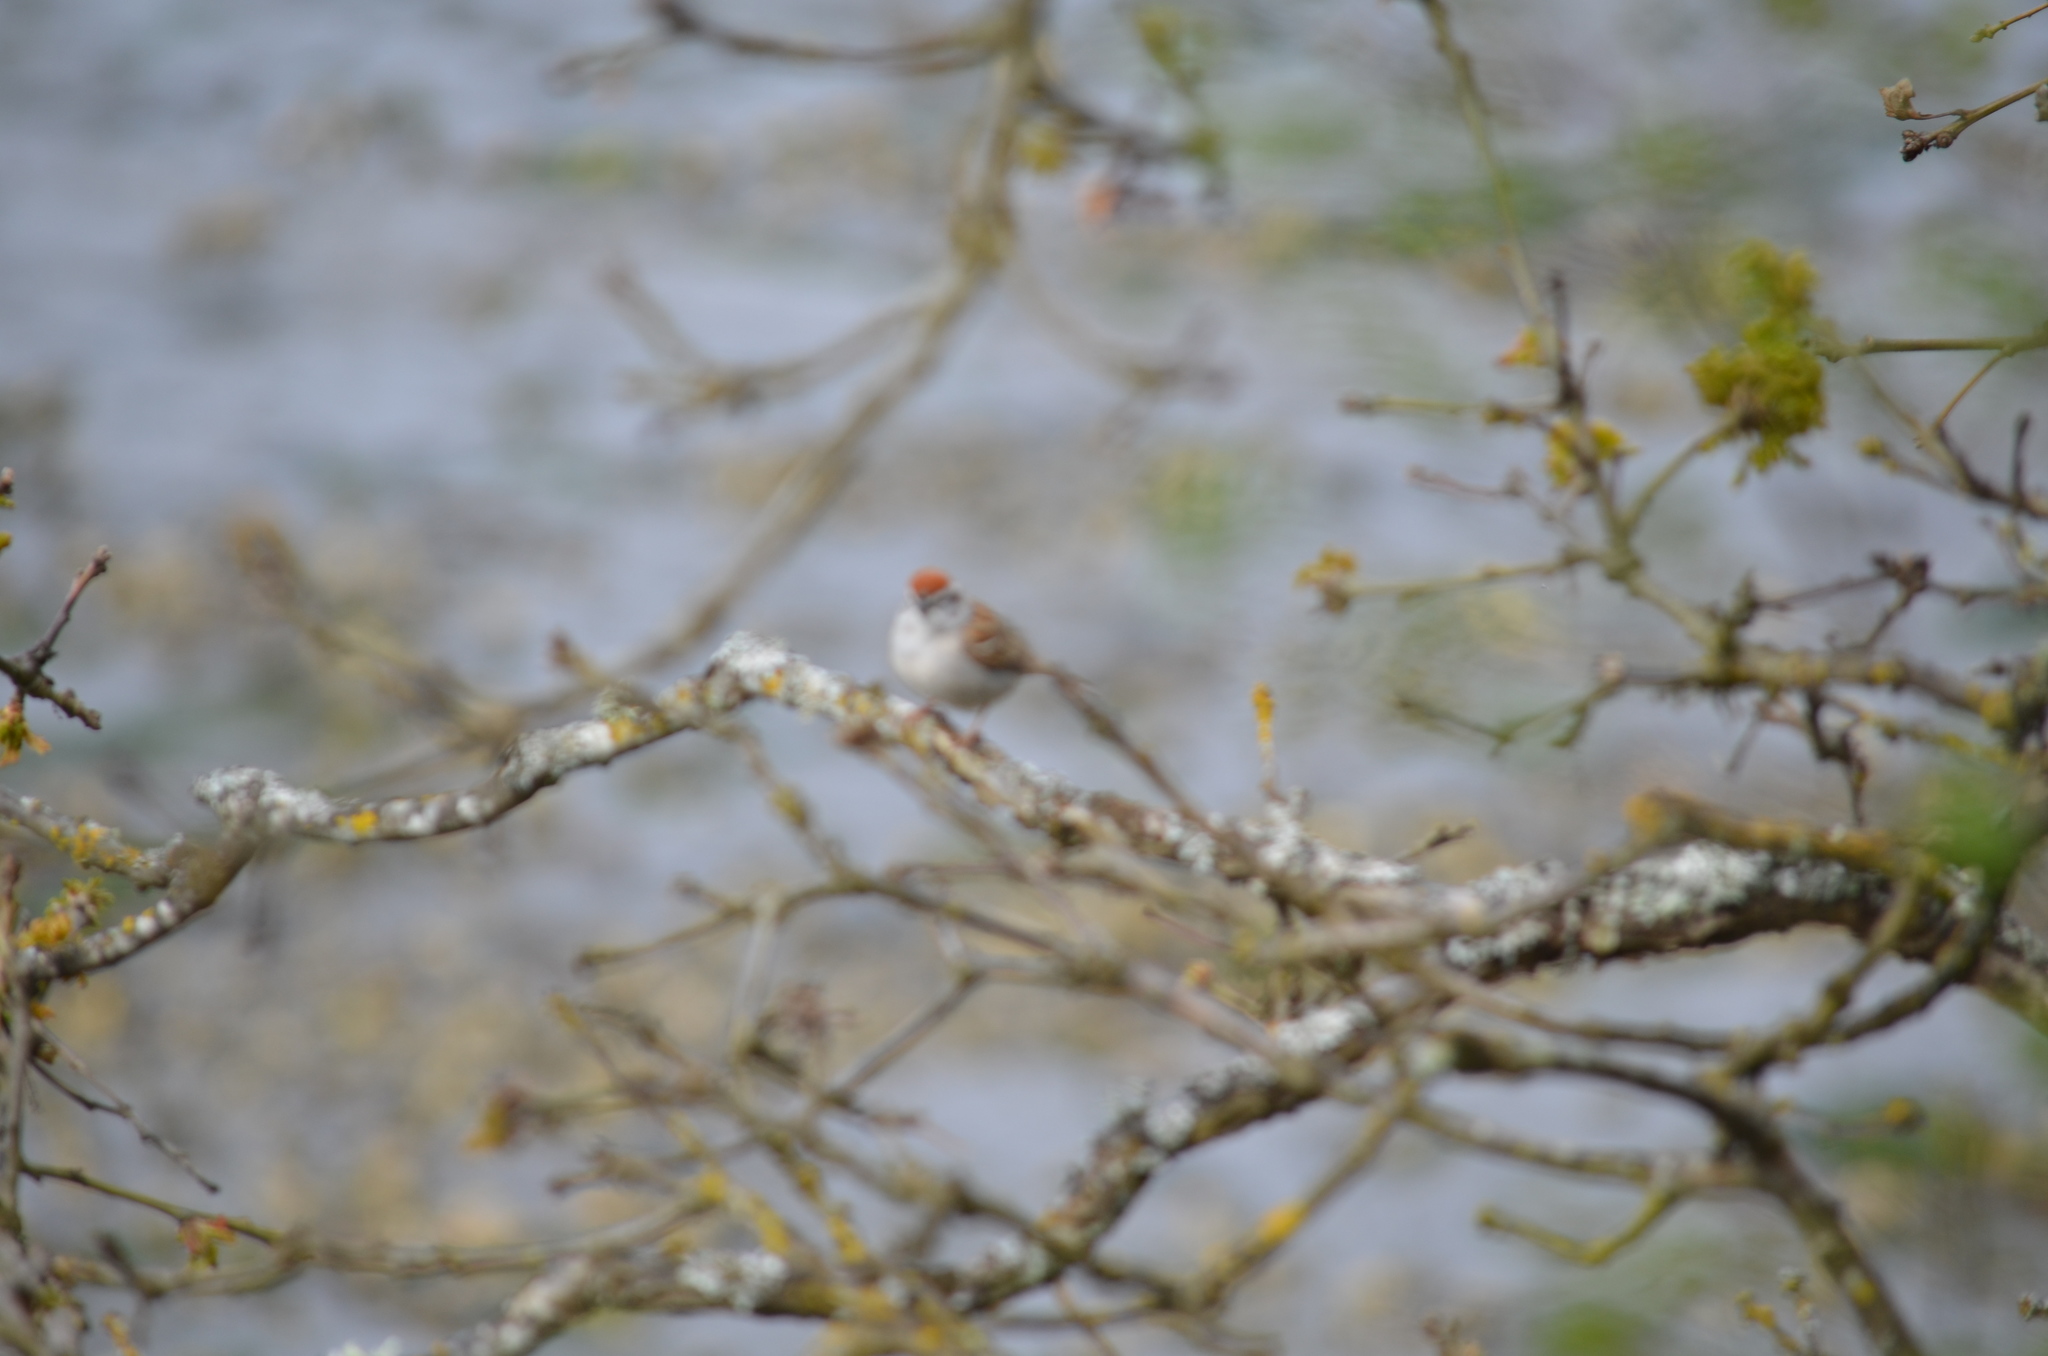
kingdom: Animalia
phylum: Chordata
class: Aves
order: Passeriformes
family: Passerellidae
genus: Spizella
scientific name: Spizella passerina
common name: Chipping sparrow
